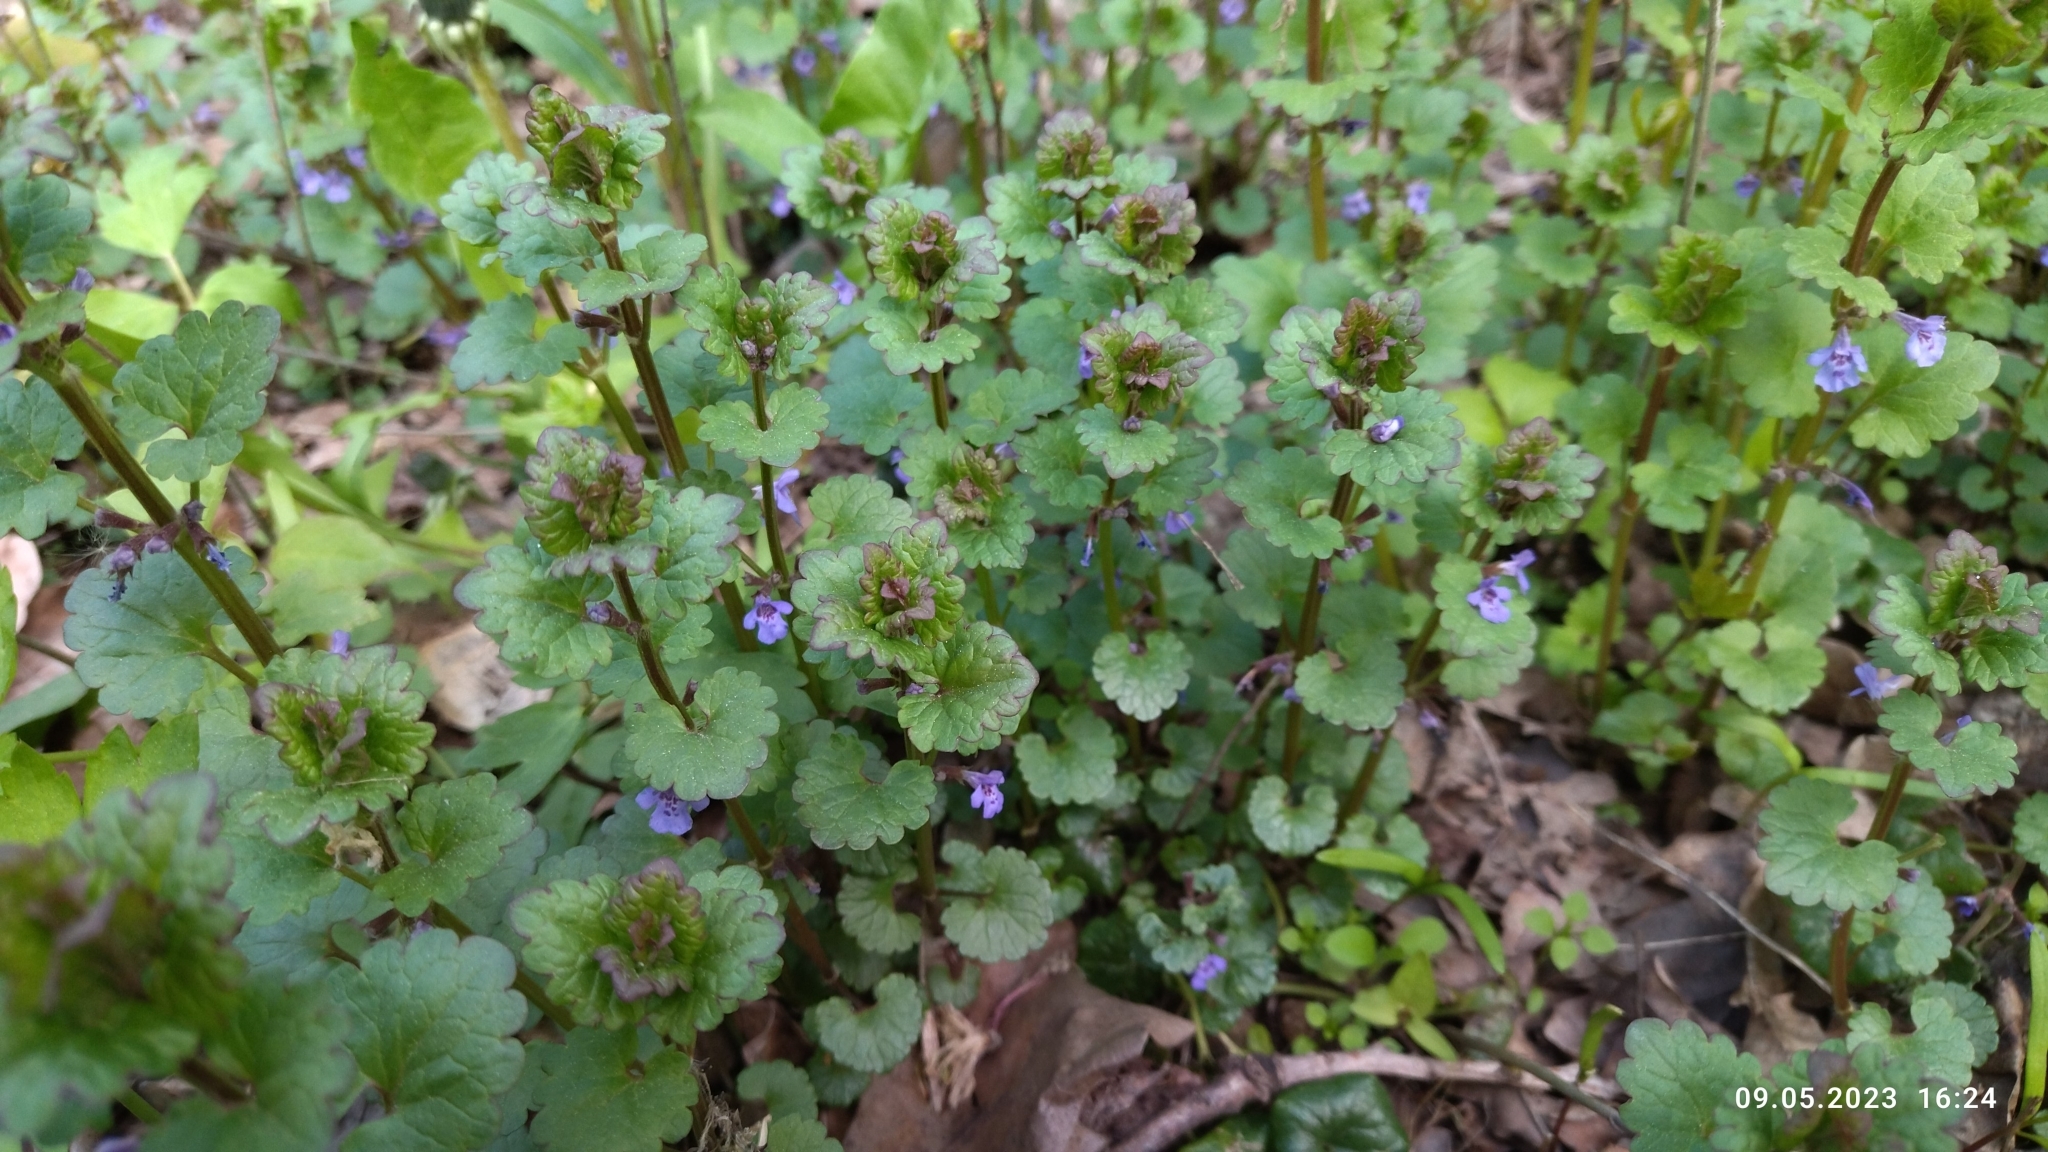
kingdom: Plantae
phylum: Tracheophyta
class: Magnoliopsida
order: Lamiales
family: Lamiaceae
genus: Glechoma
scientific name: Glechoma hederacea
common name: Ground ivy
